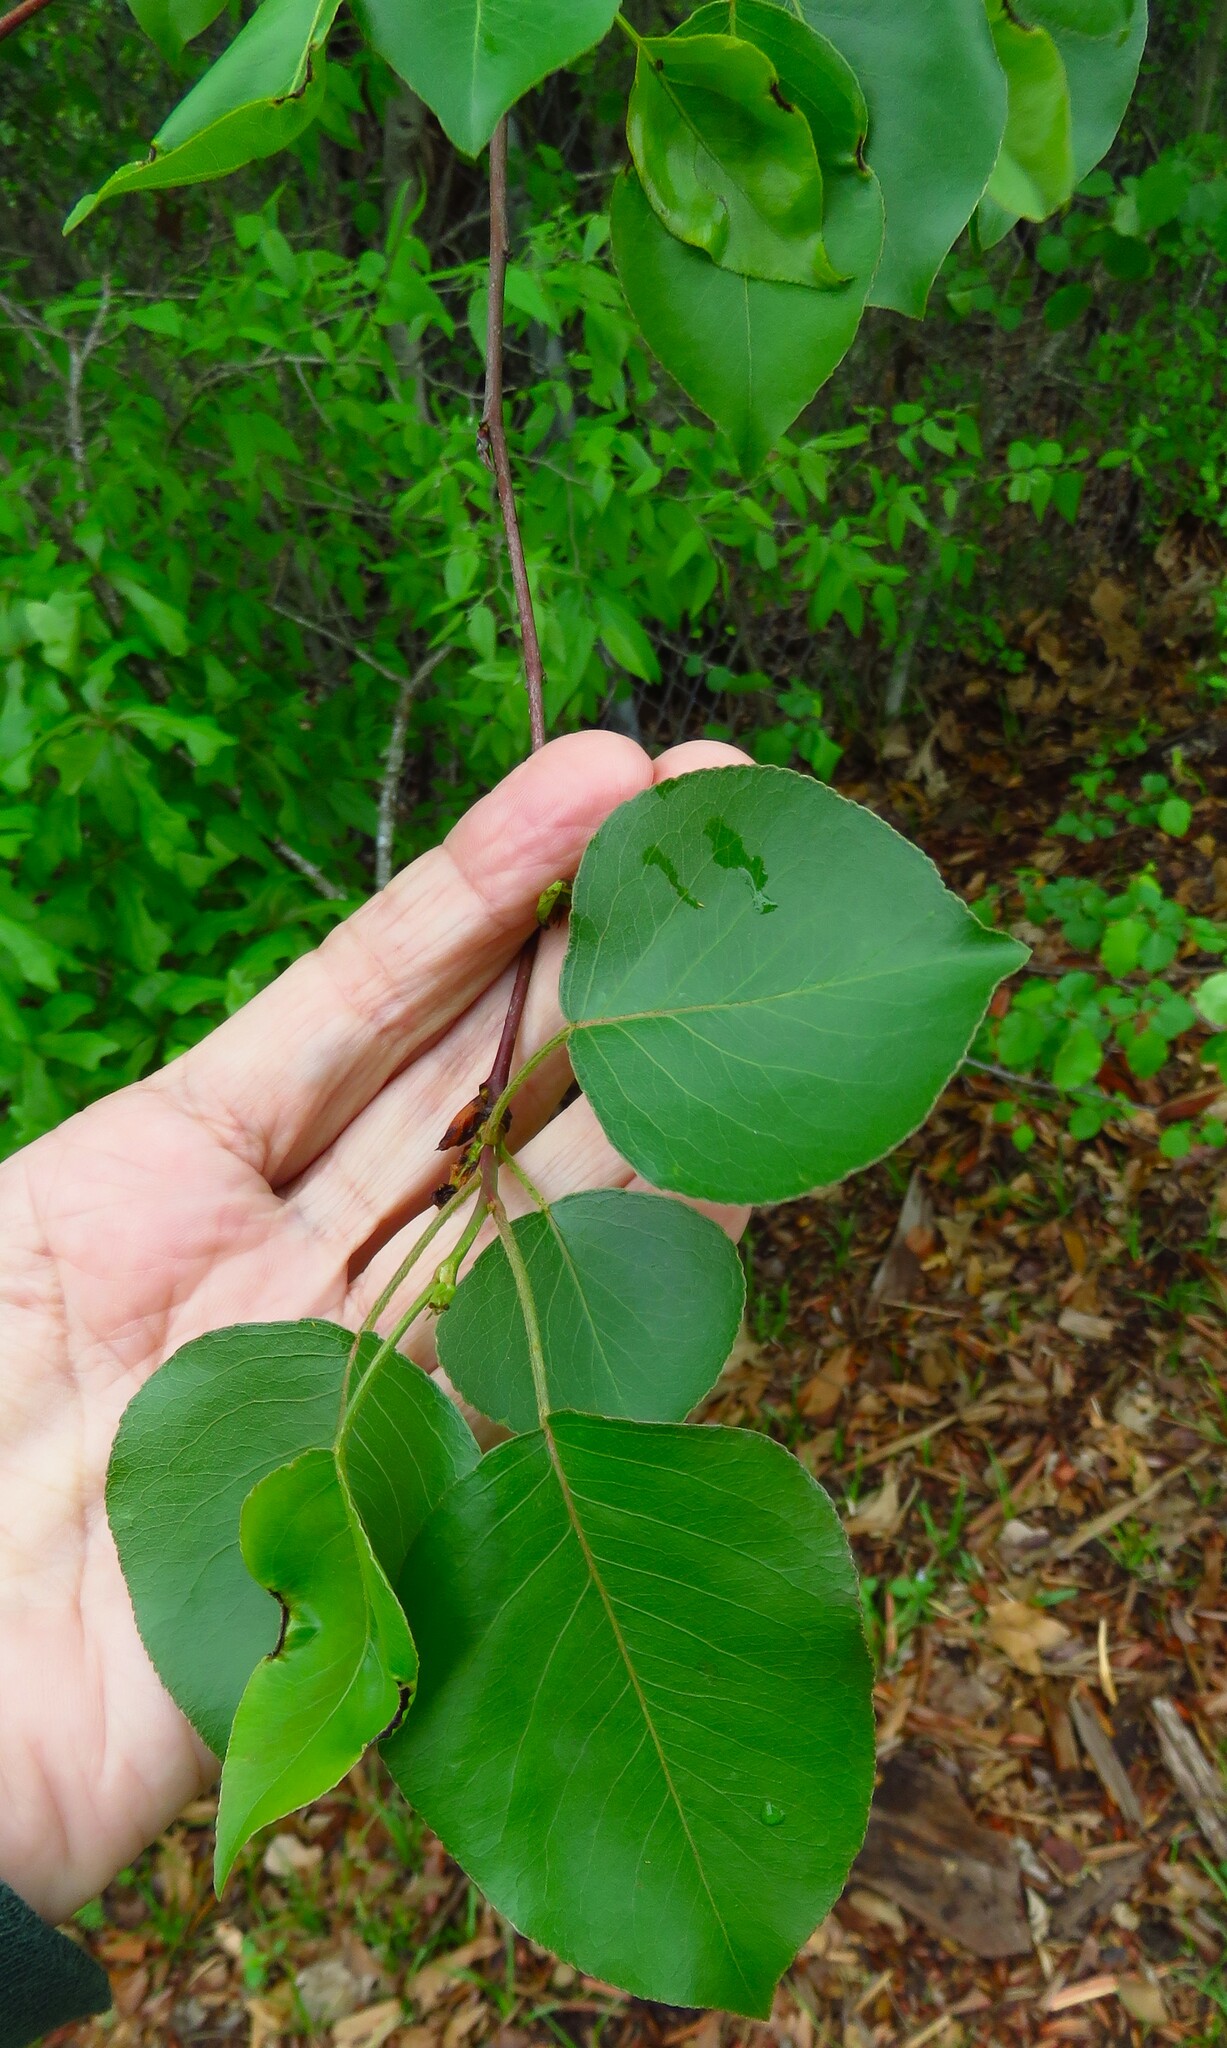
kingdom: Plantae
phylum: Tracheophyta
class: Magnoliopsida
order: Rosales
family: Rosaceae
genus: Pyrus
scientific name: Pyrus calleryana
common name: Callery pear
